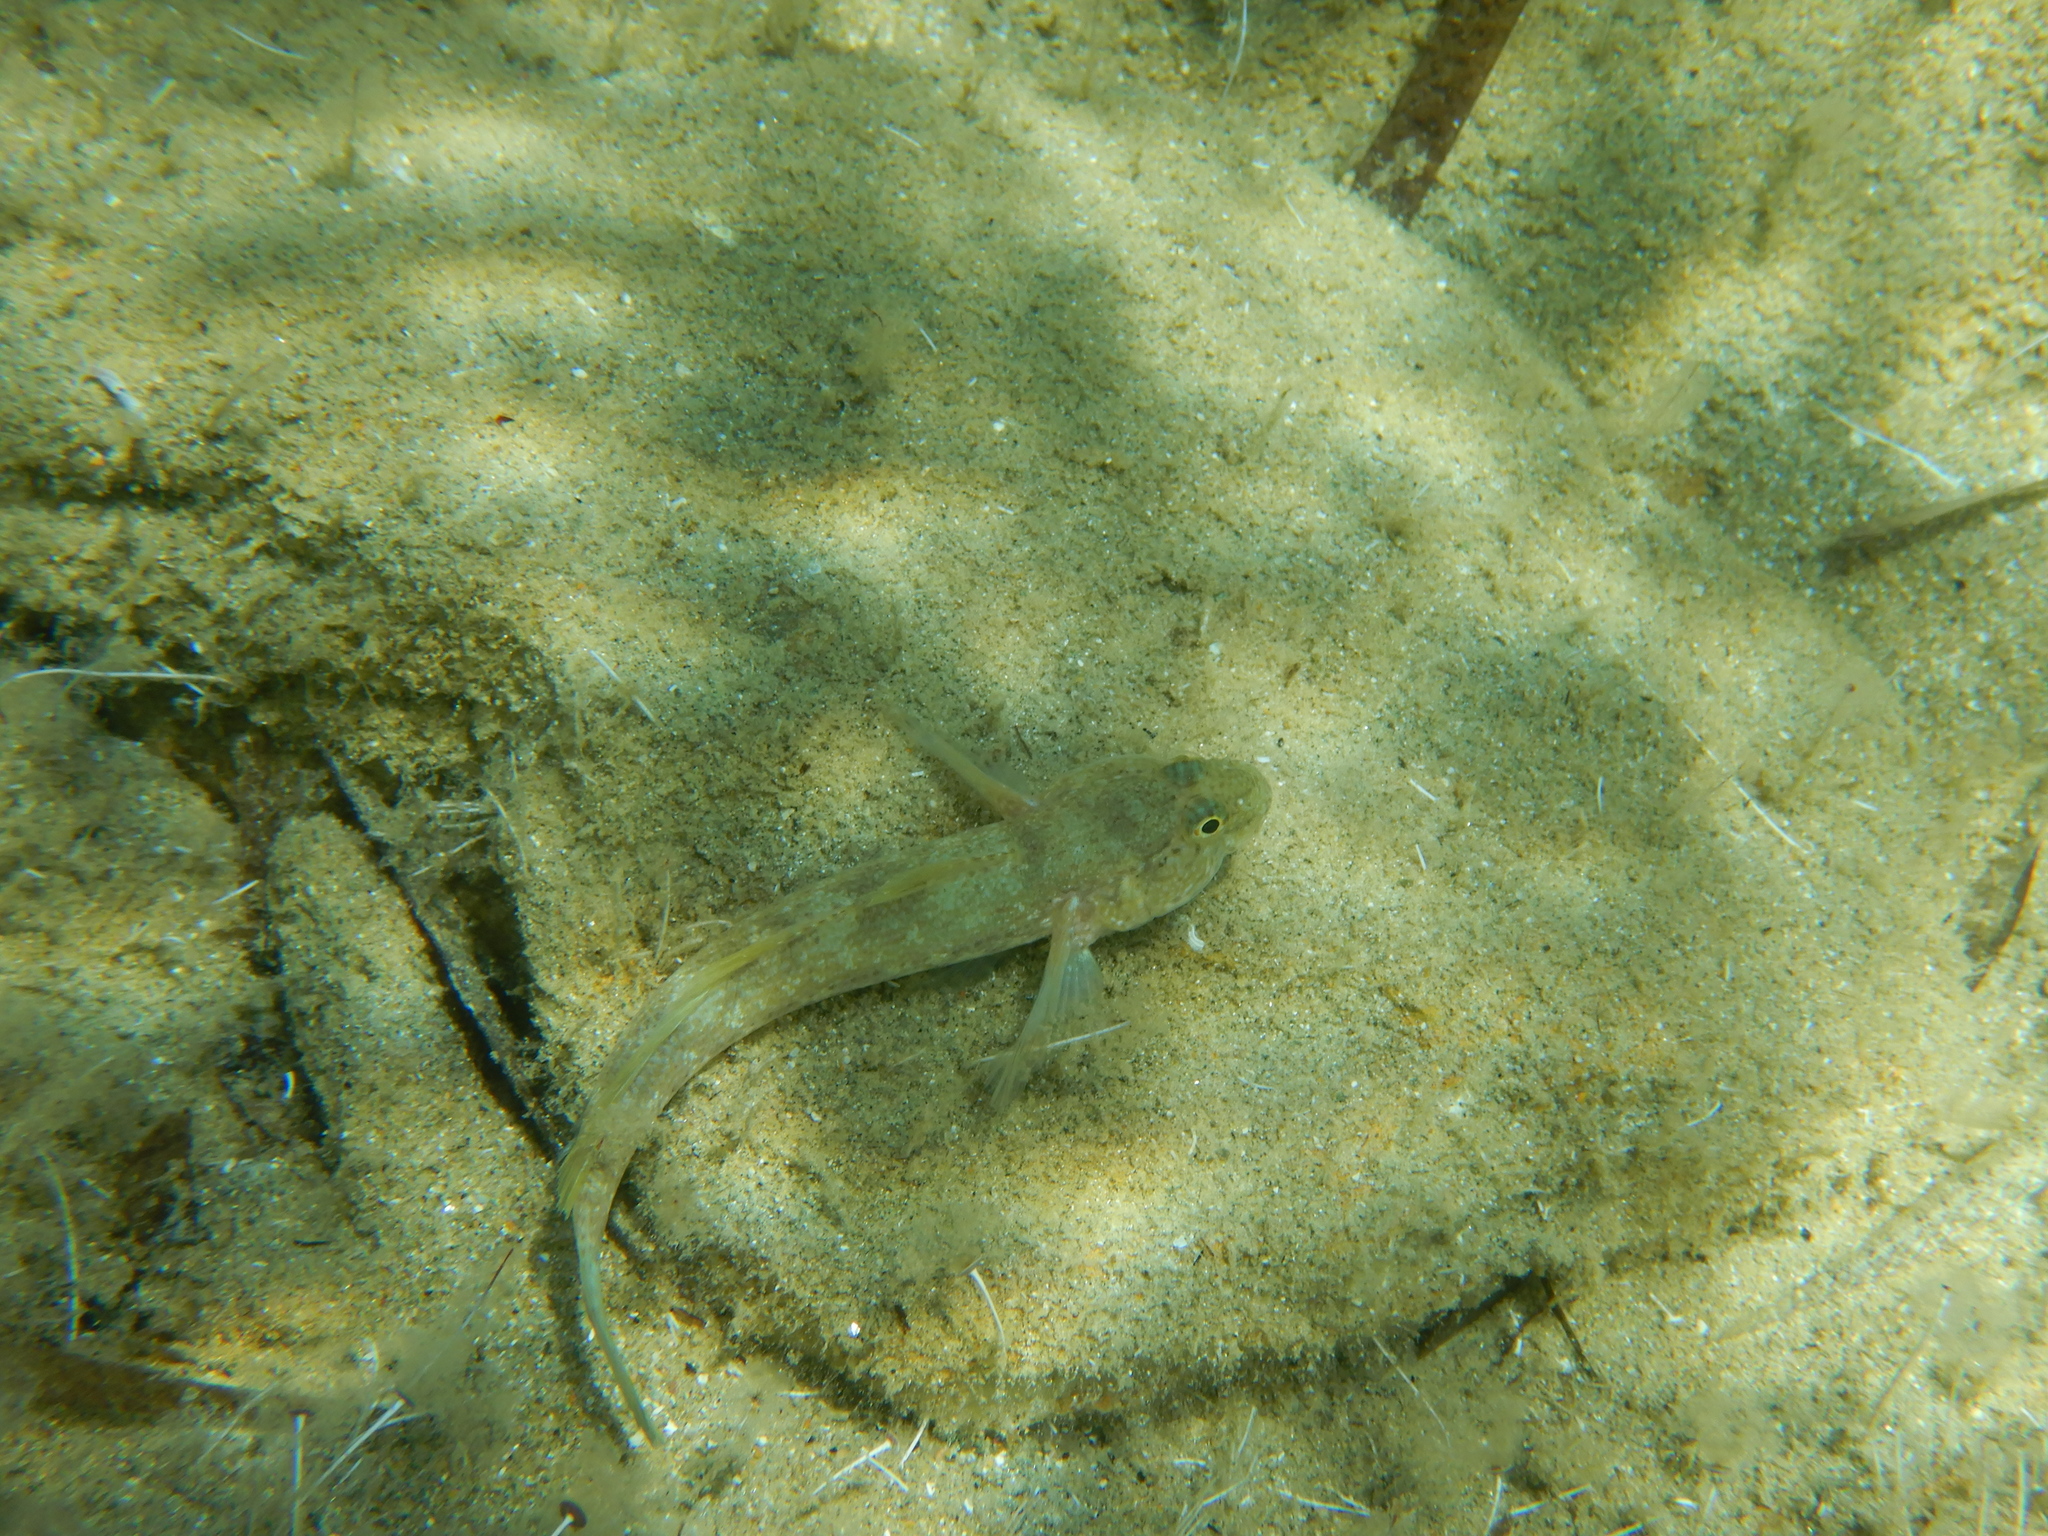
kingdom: Animalia
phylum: Chordata
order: Perciformes
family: Gobiidae
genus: Gobius
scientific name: Gobius incognitus
